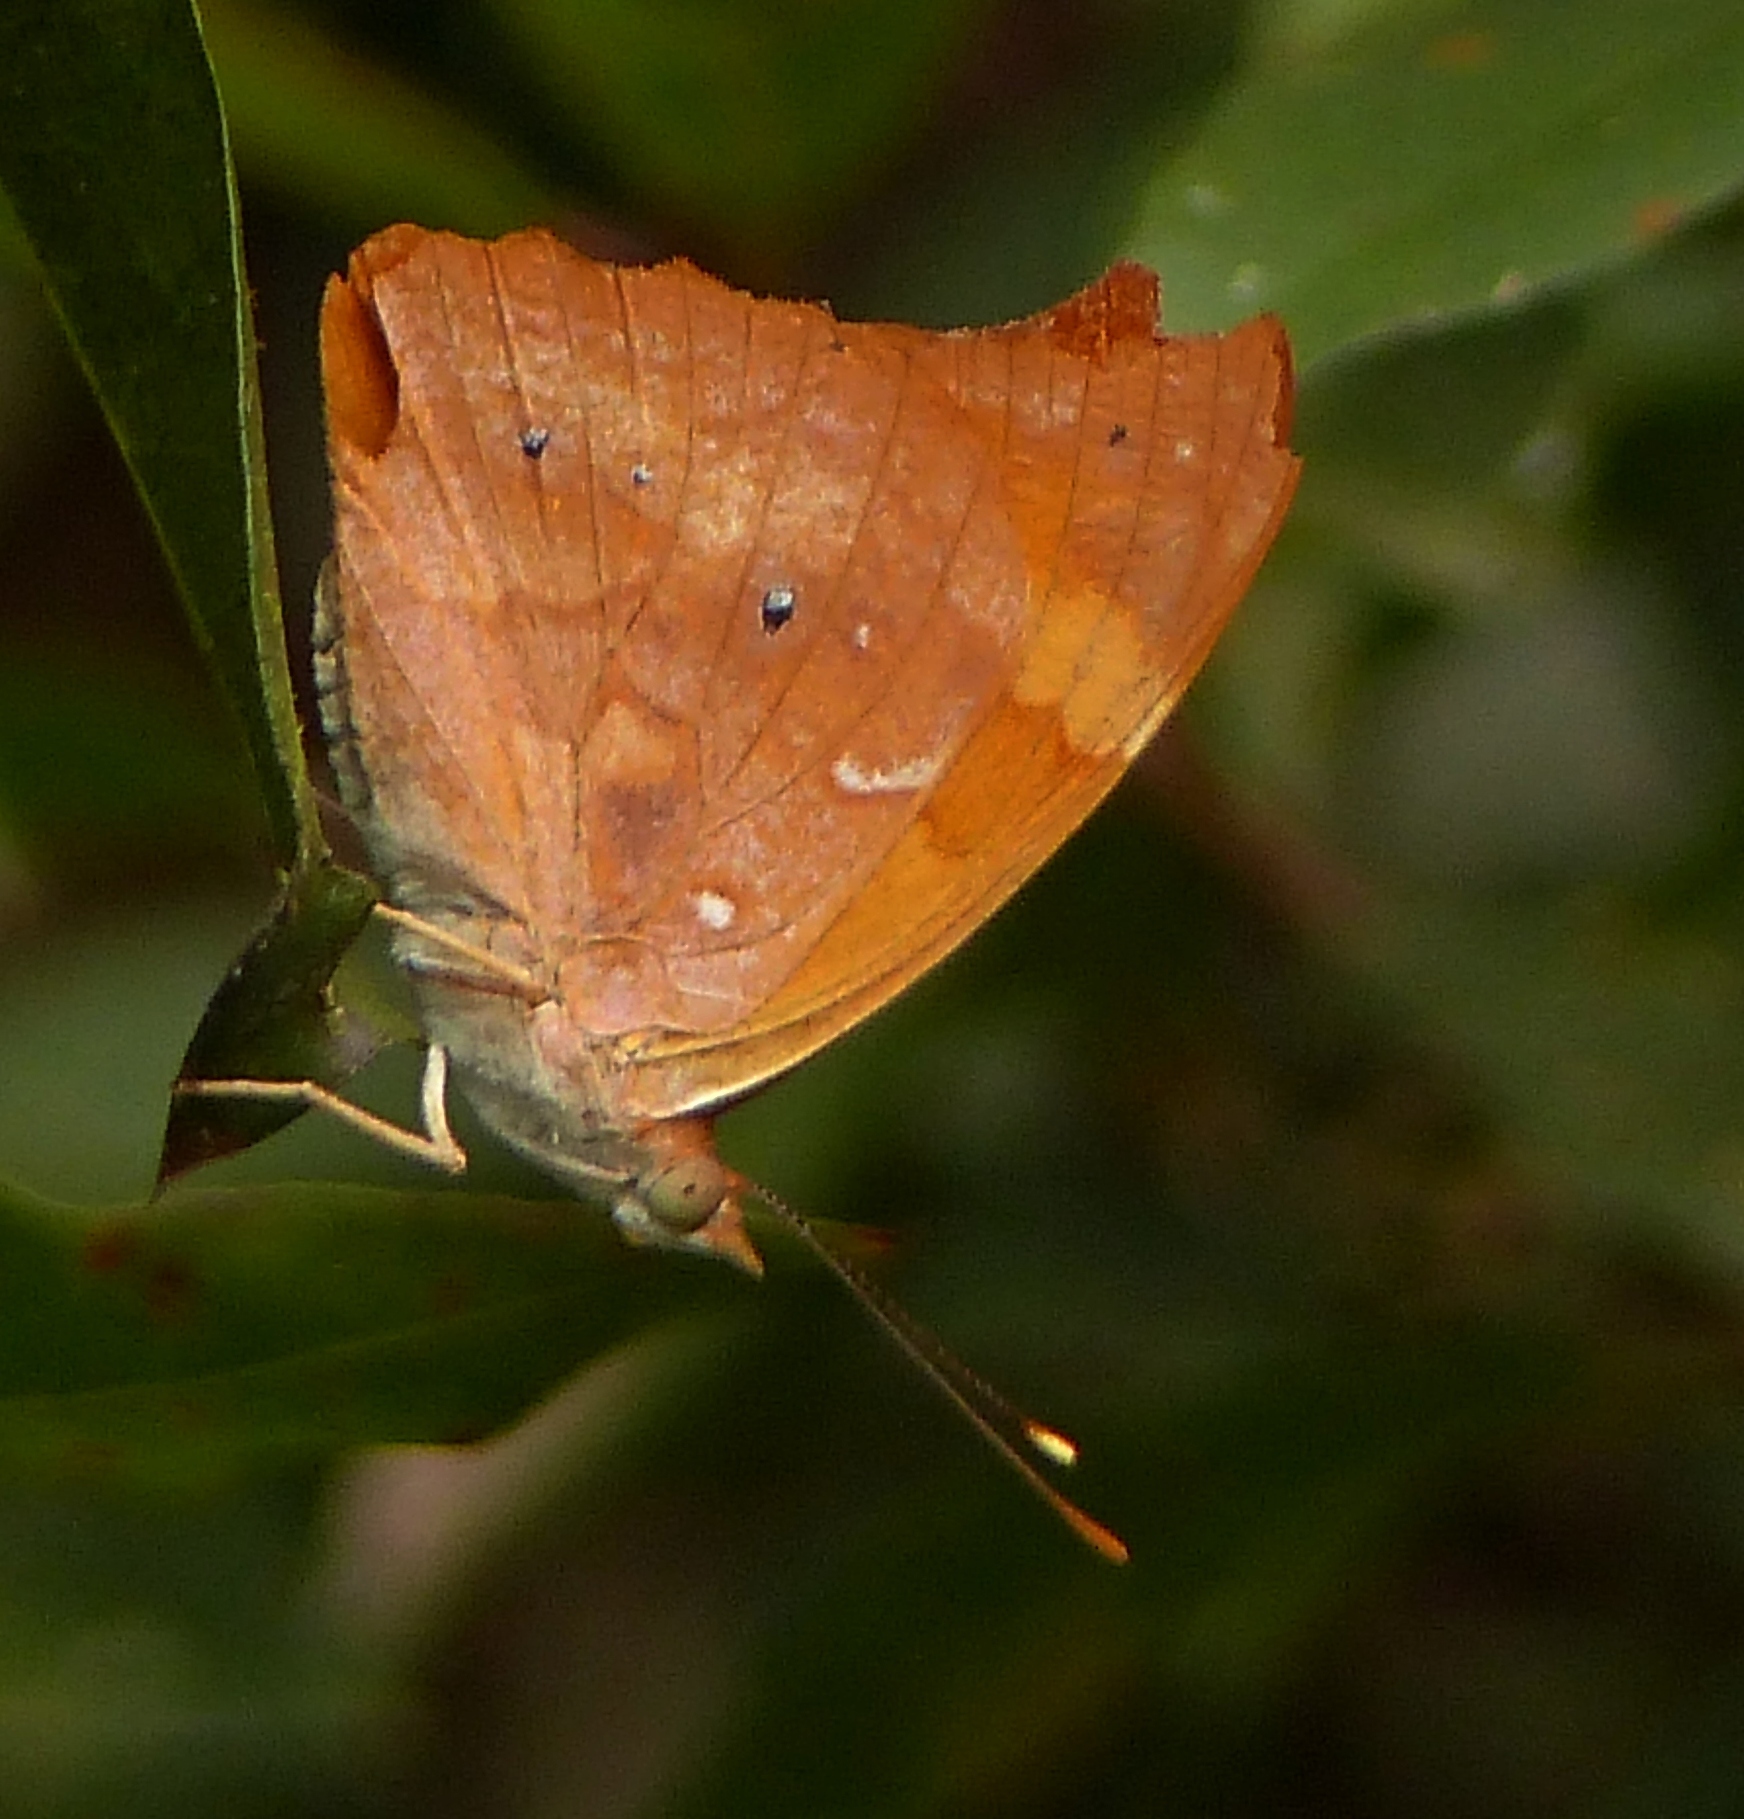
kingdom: Animalia
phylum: Arthropoda
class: Insecta
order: Lepidoptera
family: Nymphalidae
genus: Temenis
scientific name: Temenis laothoe
